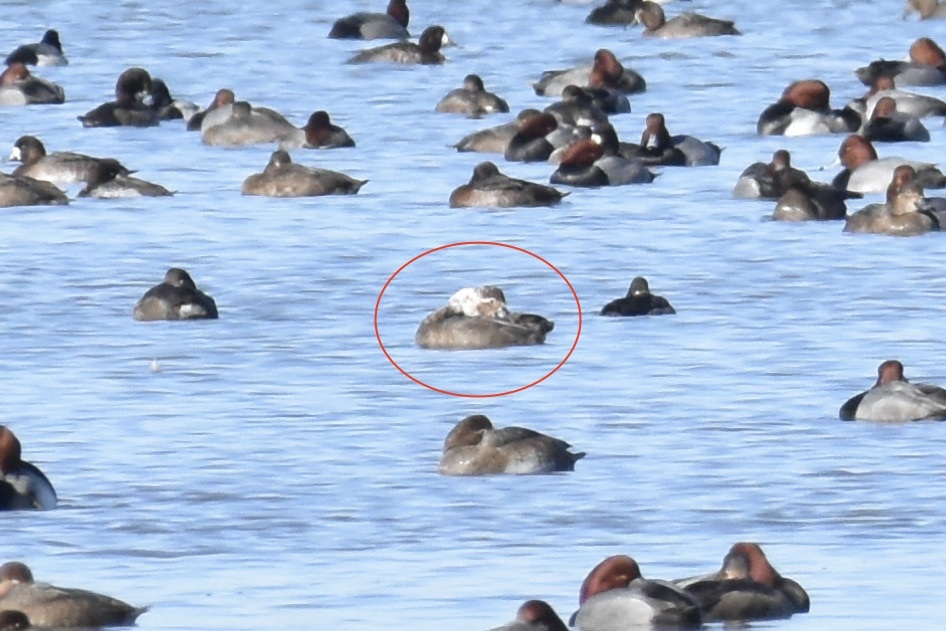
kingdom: Animalia
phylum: Chordata
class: Aves
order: Anseriformes
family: Anatidae
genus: Aythya
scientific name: Aythya americana
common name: Redhead
